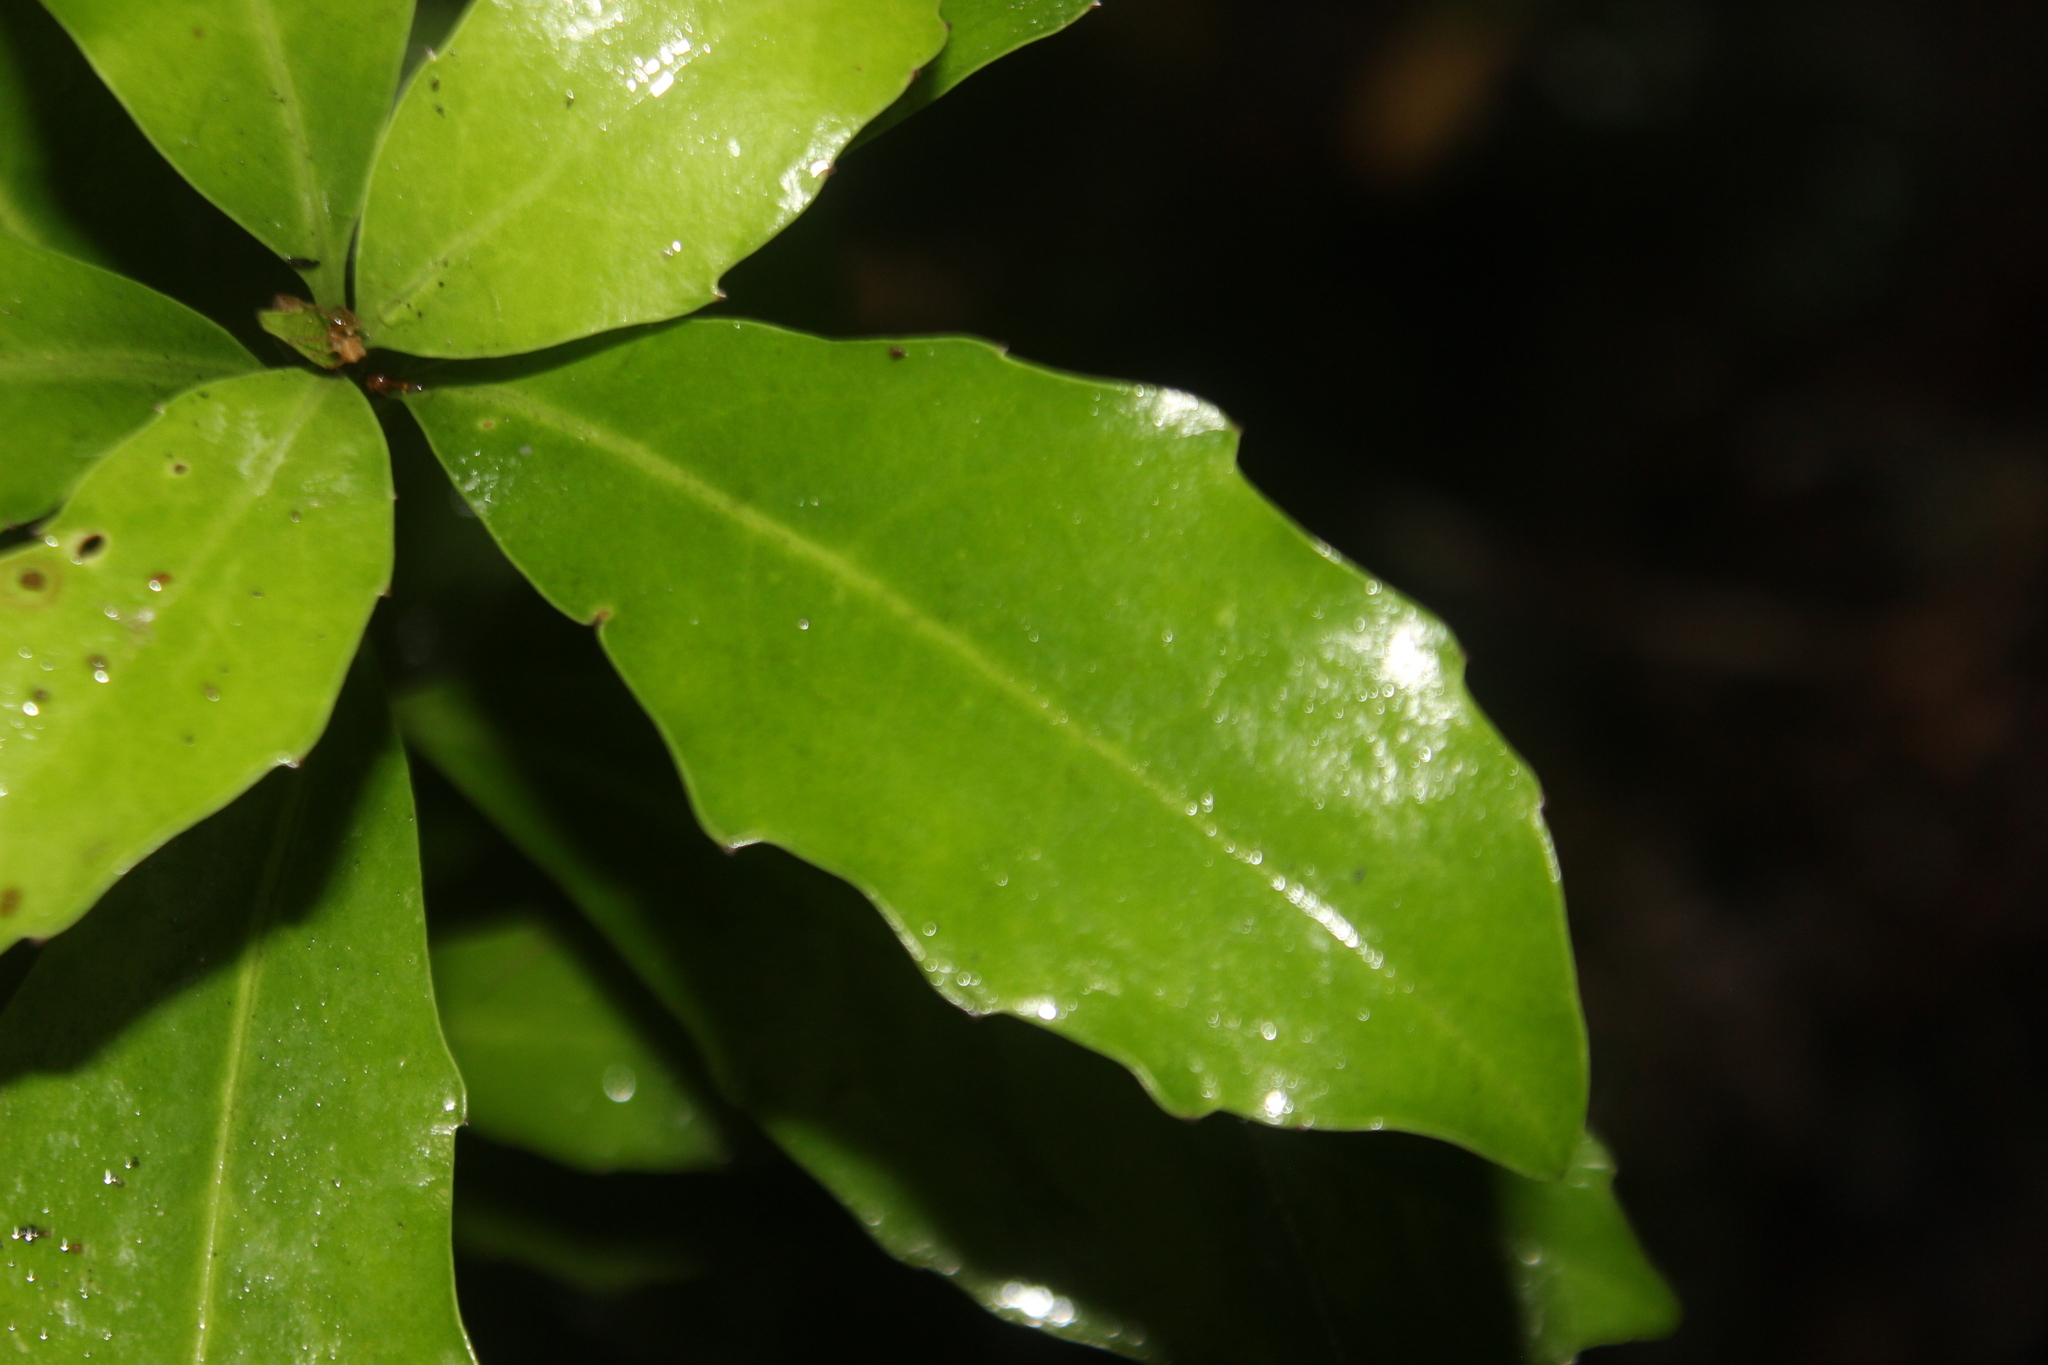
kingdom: Plantae
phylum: Tracheophyta
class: Magnoliopsida
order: Asterales
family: Alseuosmiaceae
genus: Alseuosmia
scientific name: Alseuosmia turneri
